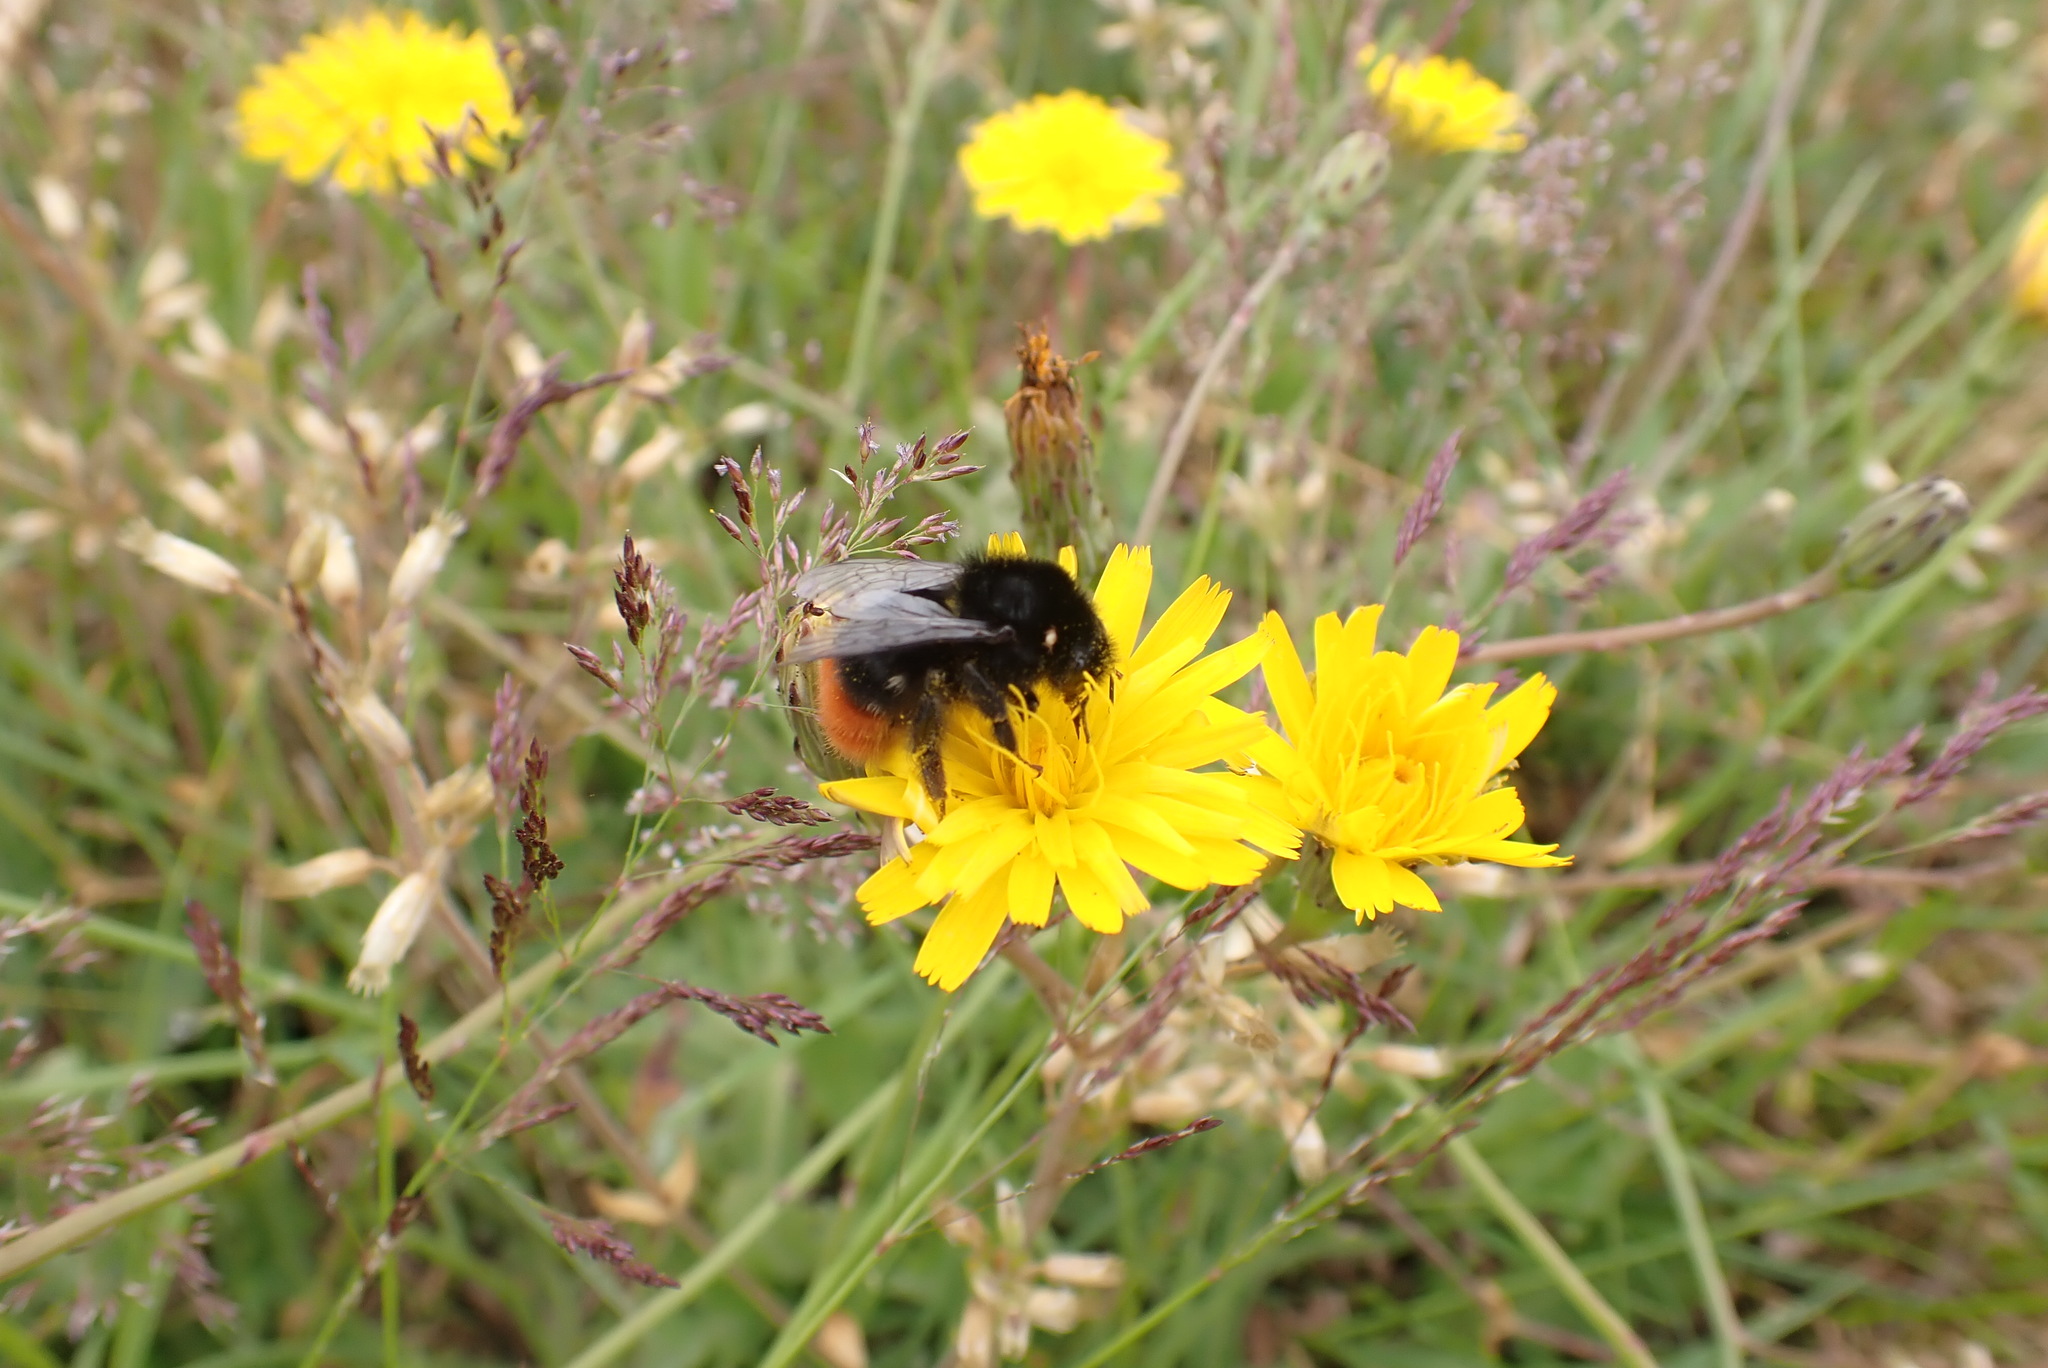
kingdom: Animalia
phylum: Arthropoda
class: Insecta
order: Hymenoptera
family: Apidae
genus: Bombus
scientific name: Bombus lapidarius
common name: Large red-tailed humble-bee
